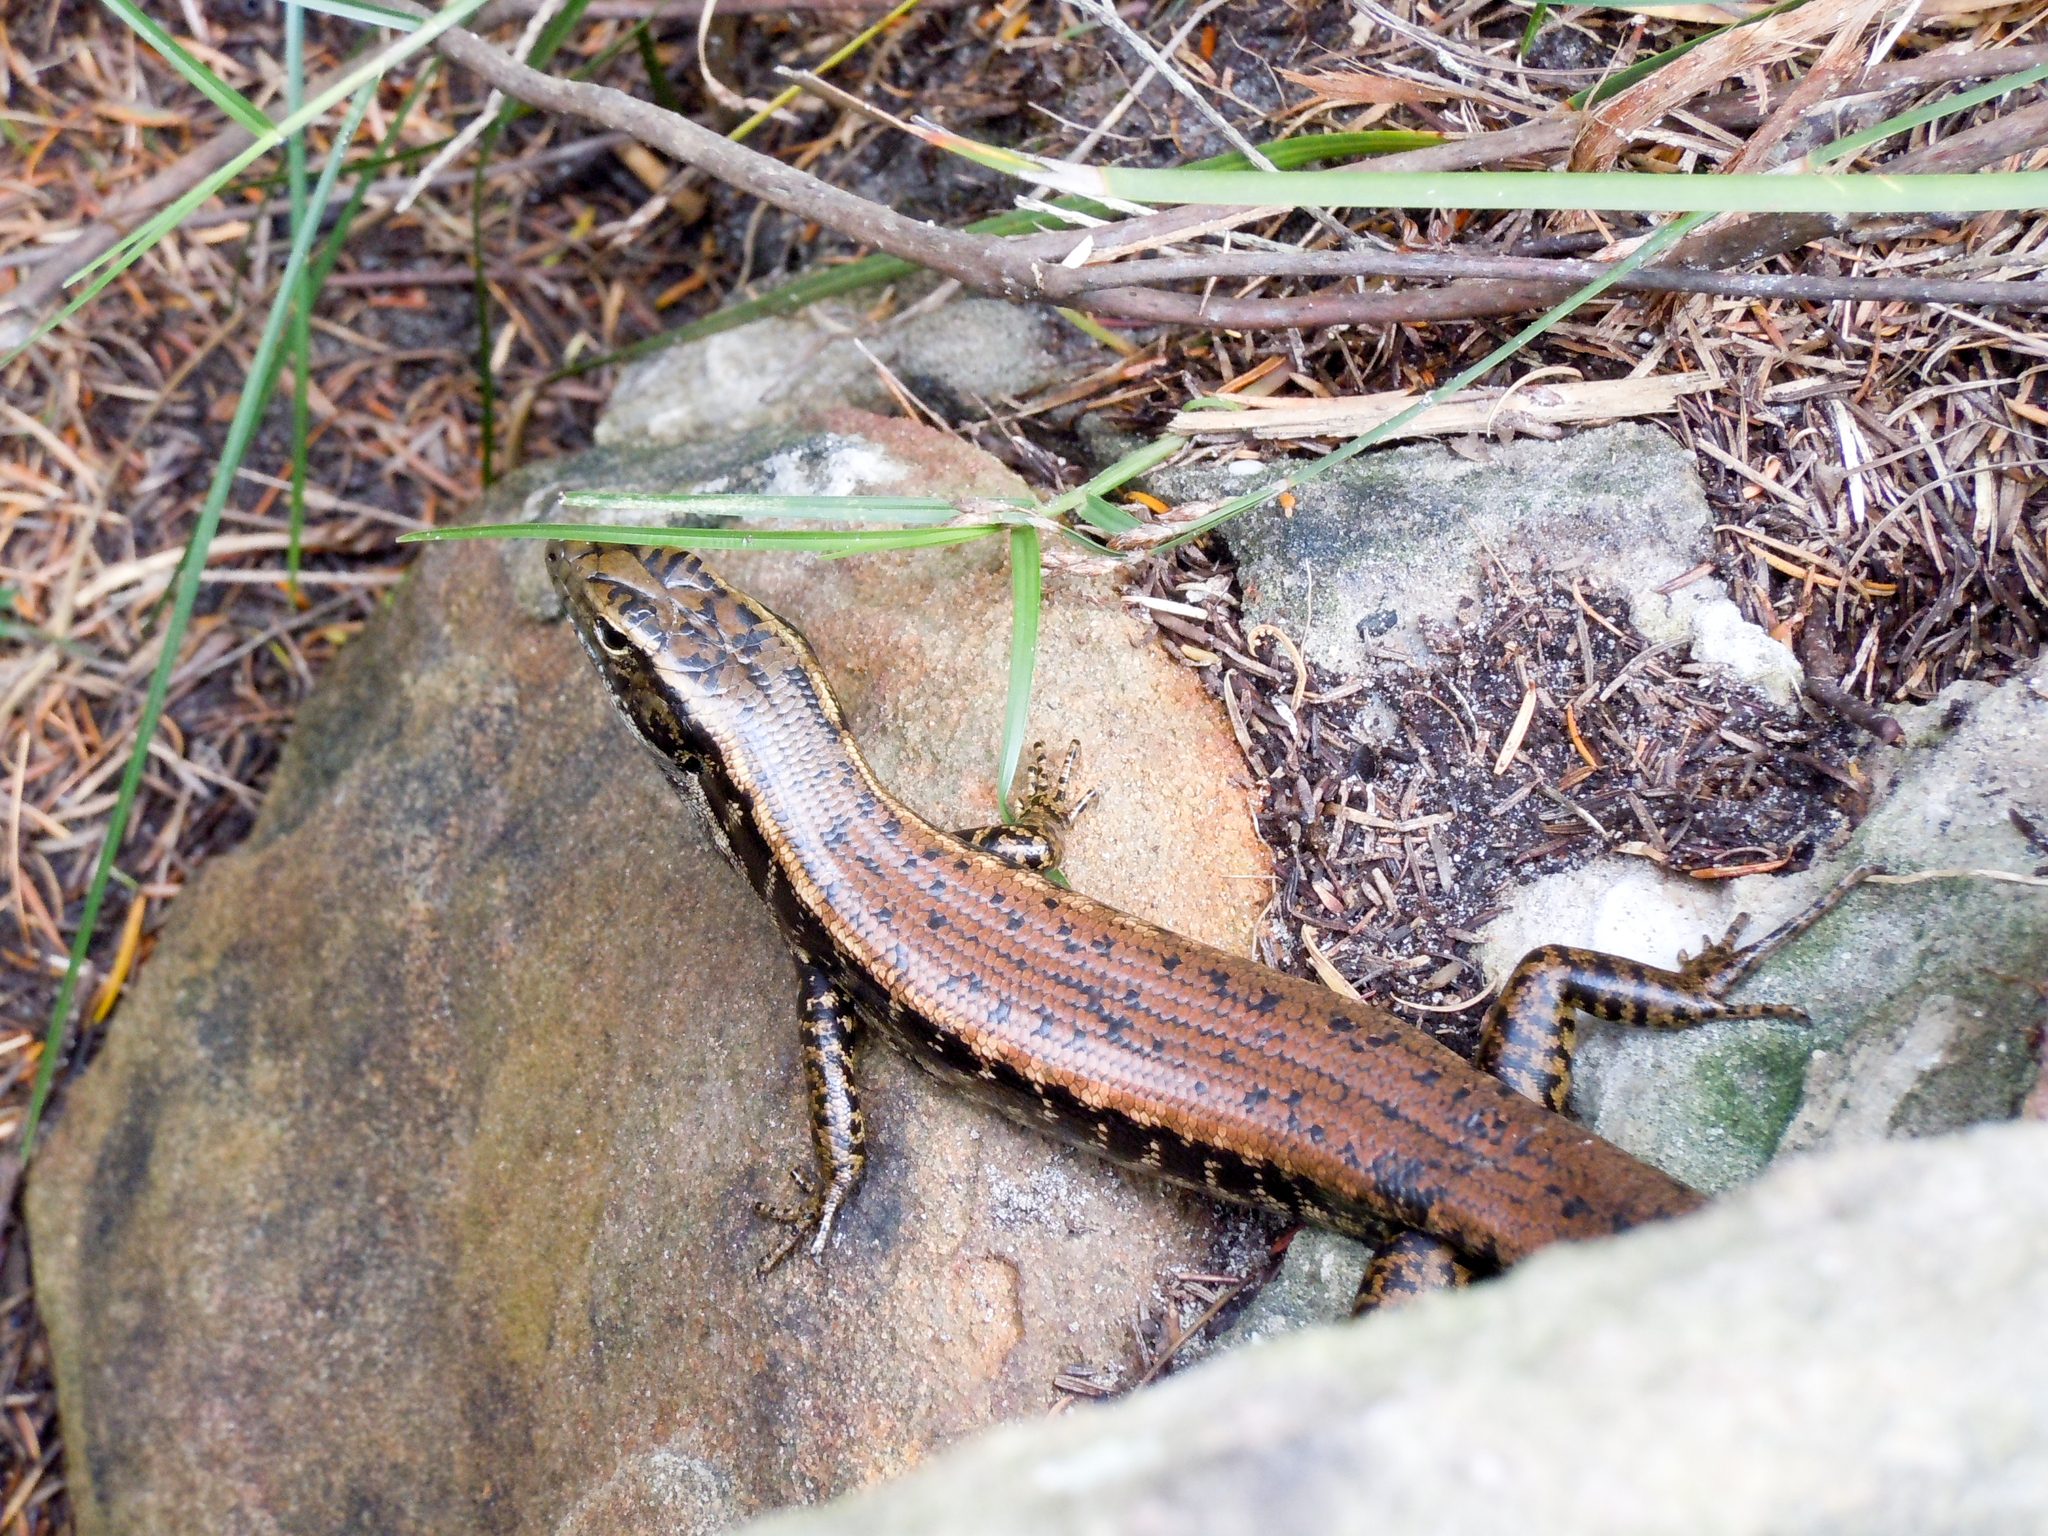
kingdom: Animalia
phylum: Chordata
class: Squamata
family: Scincidae
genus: Eulamprus
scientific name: Eulamprus quoyii
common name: Eastern water skink
